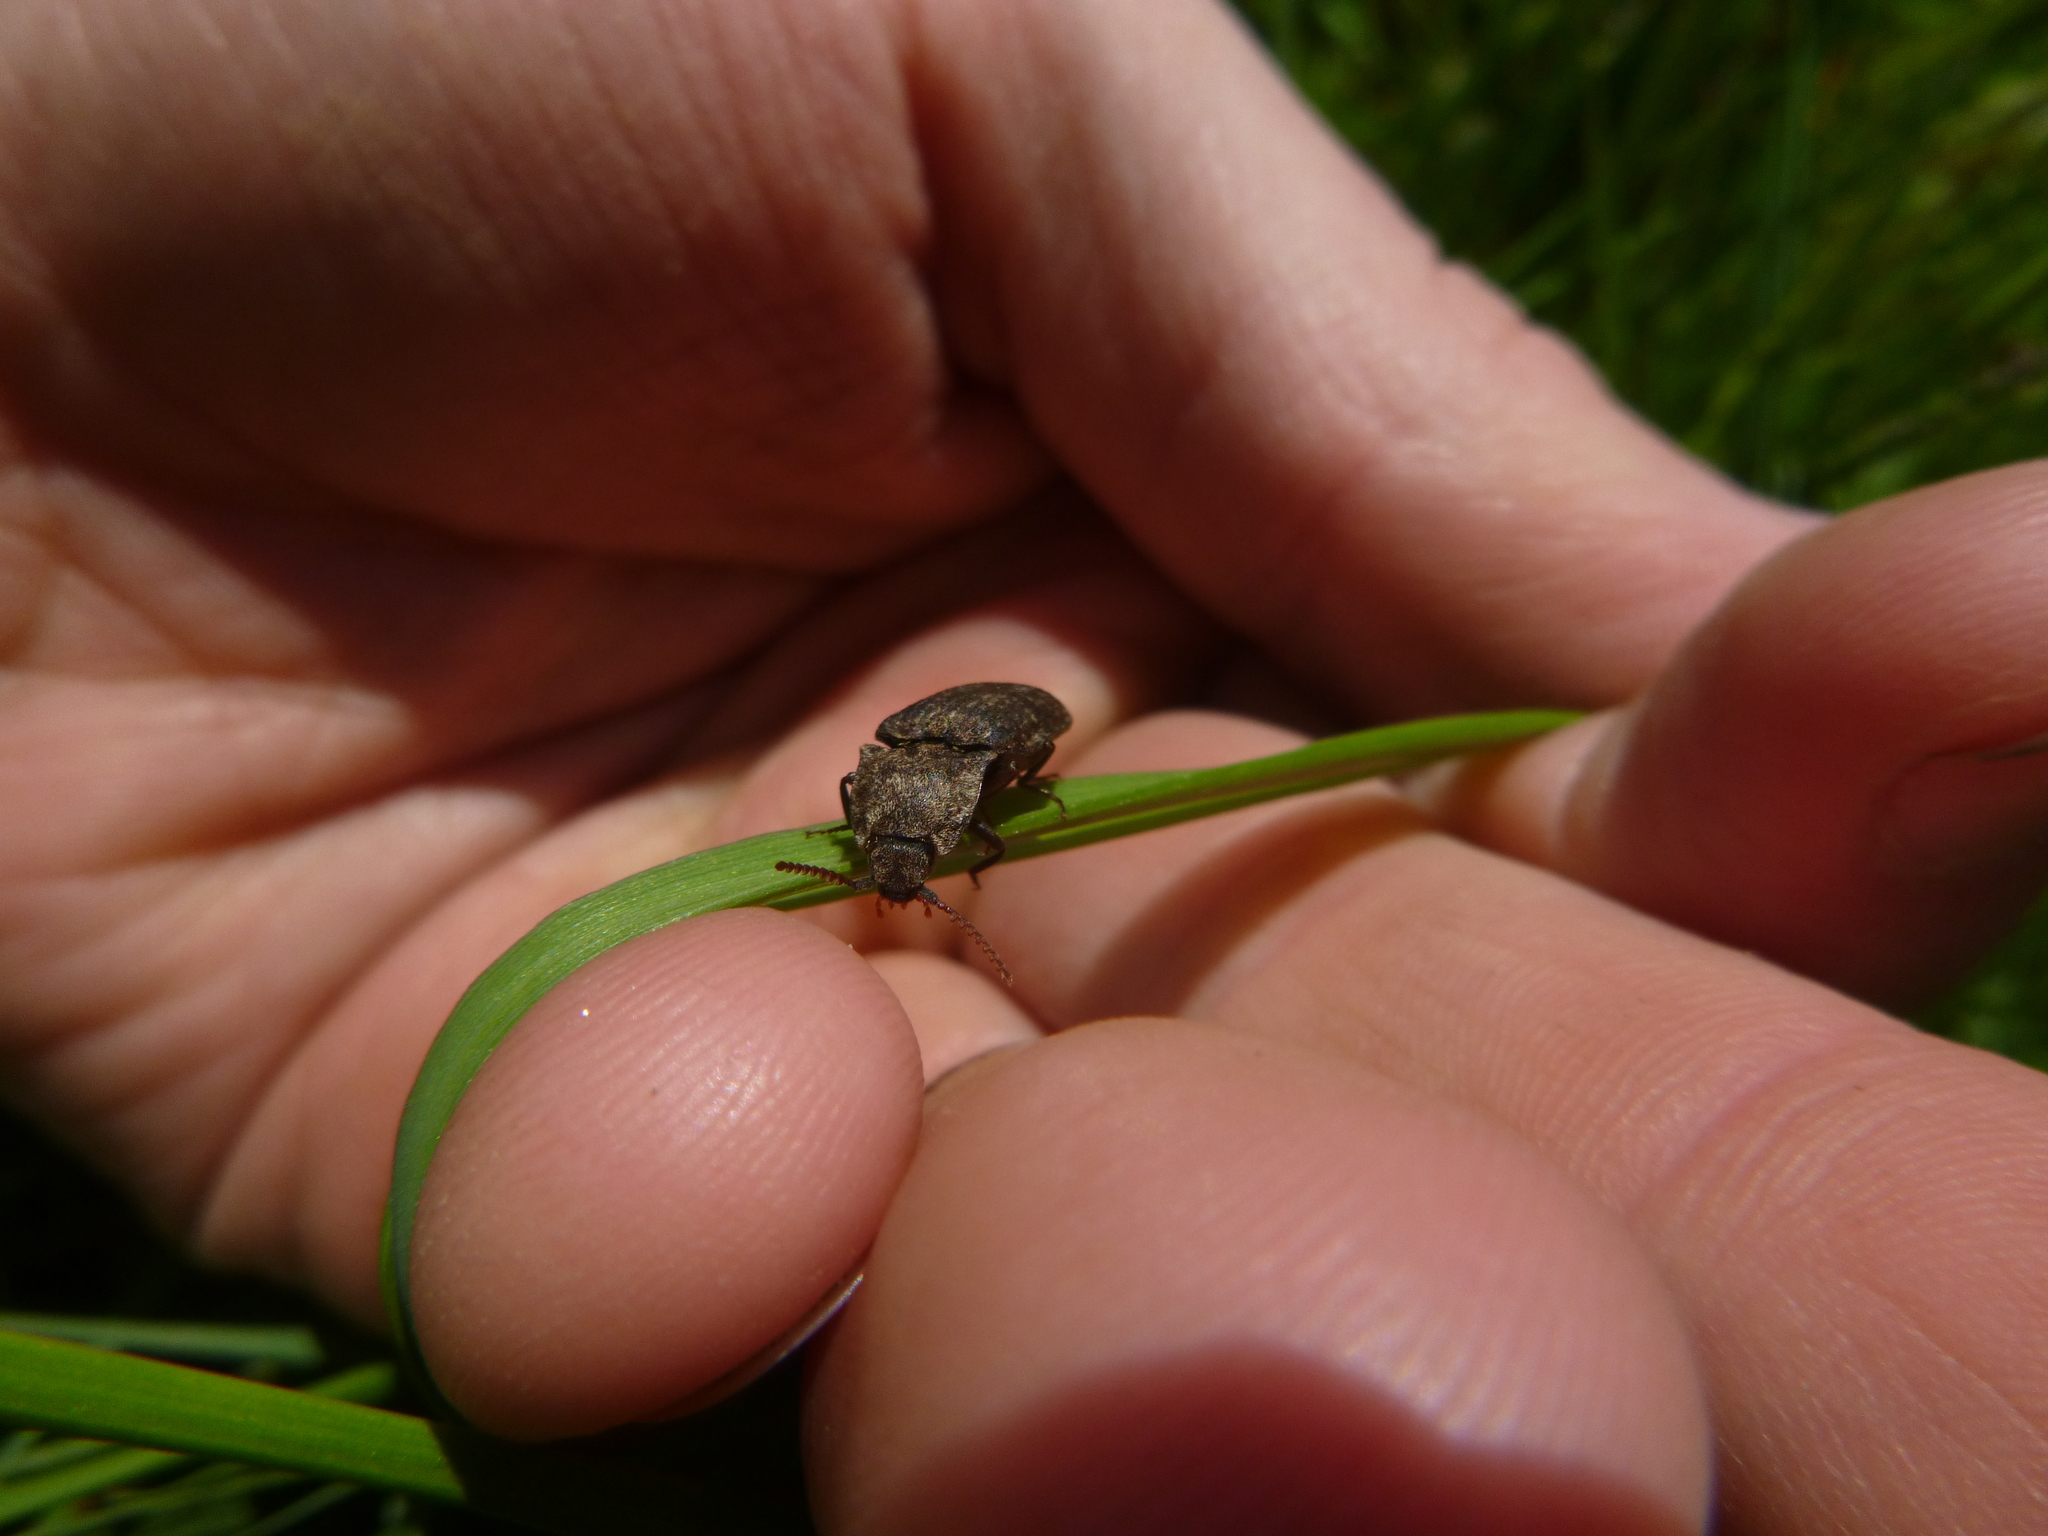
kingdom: Animalia
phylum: Arthropoda
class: Insecta
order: Coleoptera
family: Elateridae
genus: Agrypnus
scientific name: Agrypnus murinus
